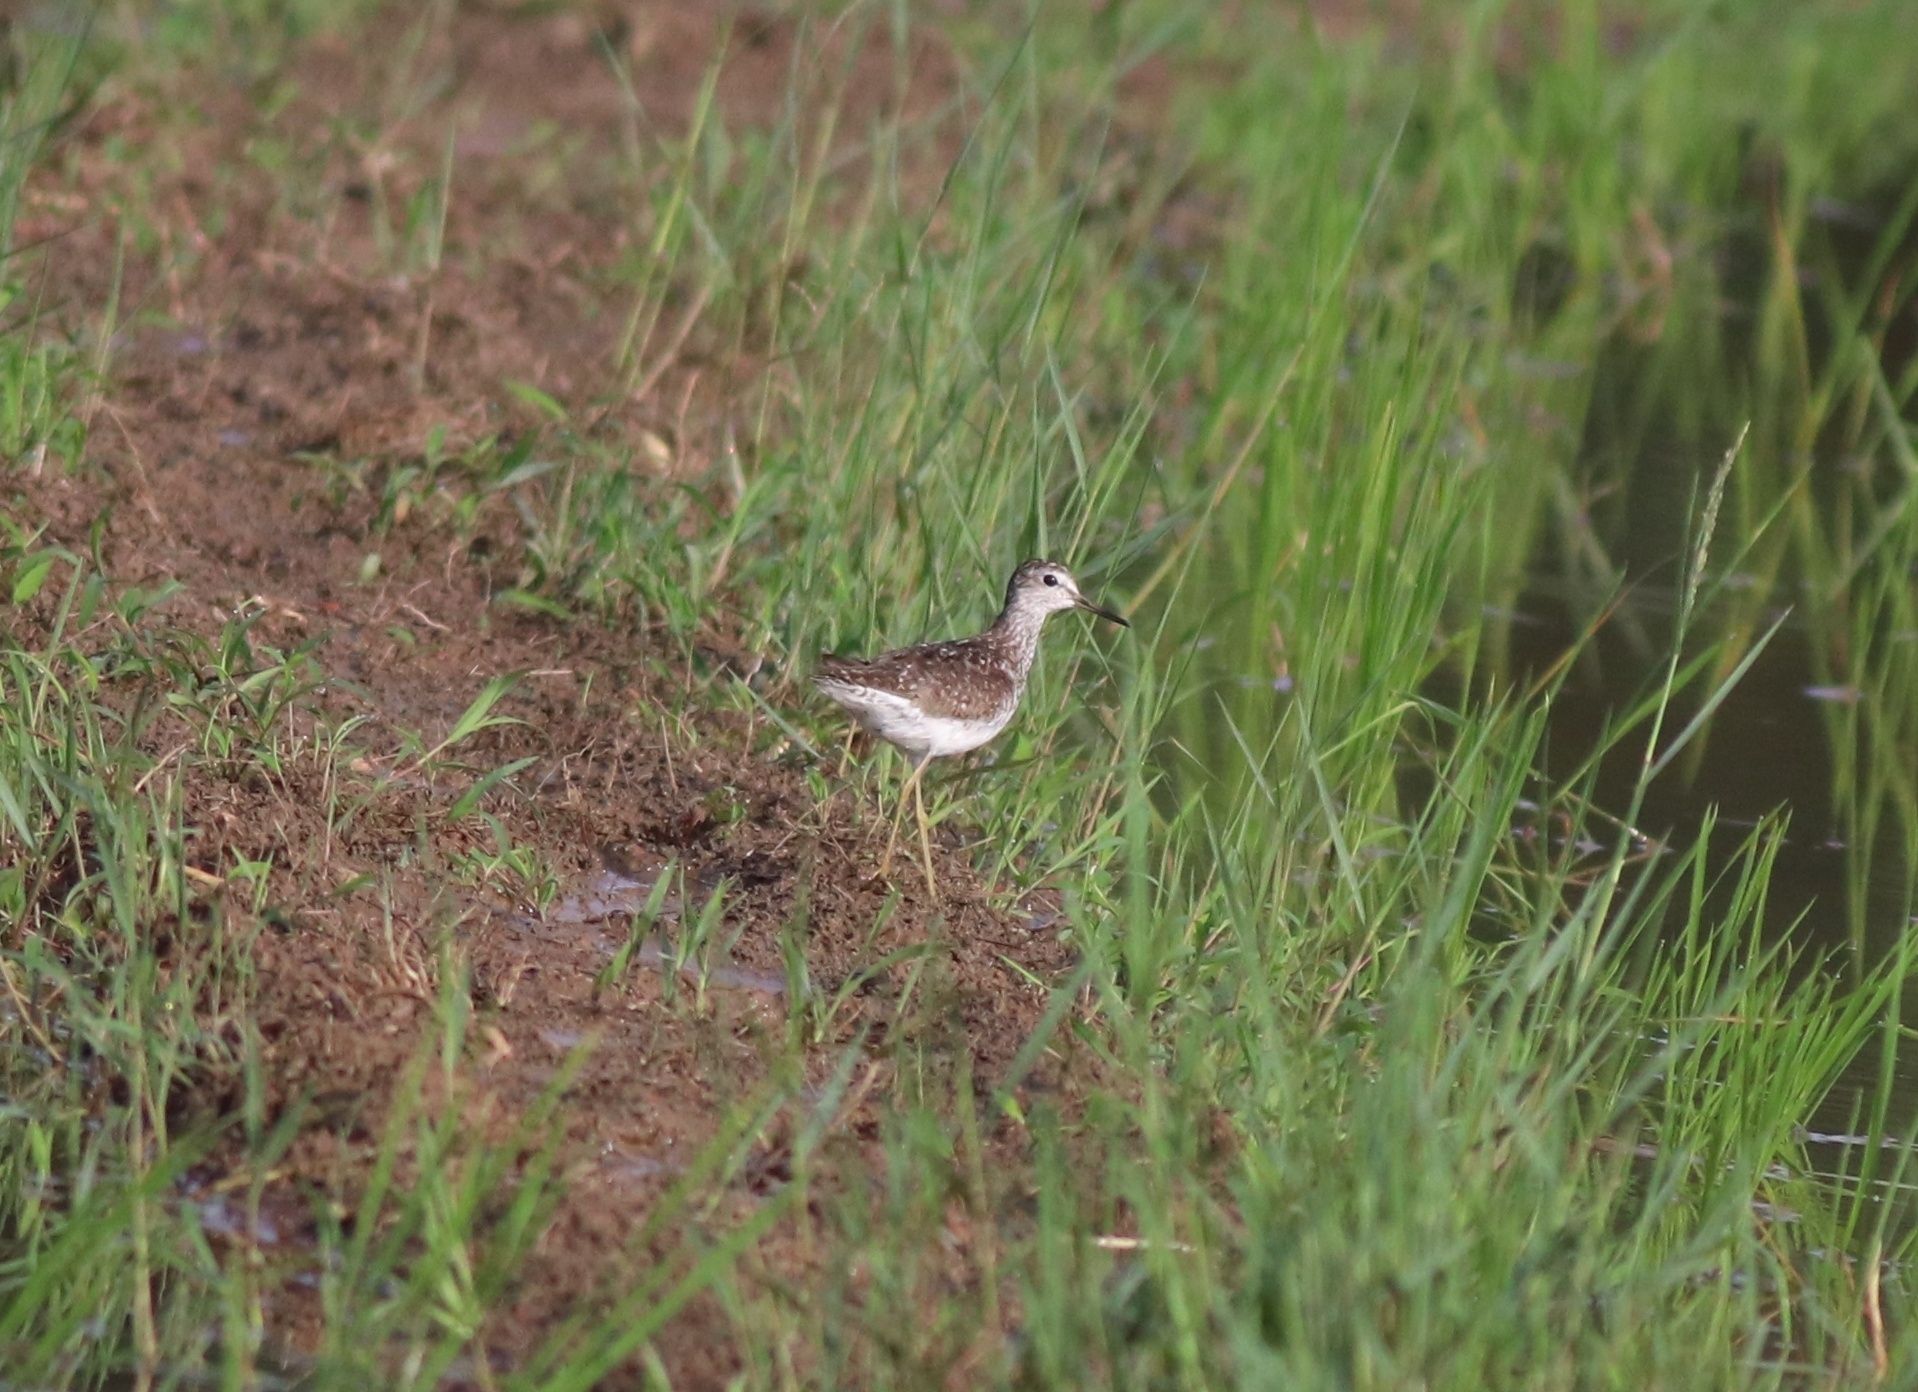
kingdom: Animalia
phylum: Chordata
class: Aves
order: Charadriiformes
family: Scolopacidae
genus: Tringa
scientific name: Tringa glareola
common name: Wood sandpiper
